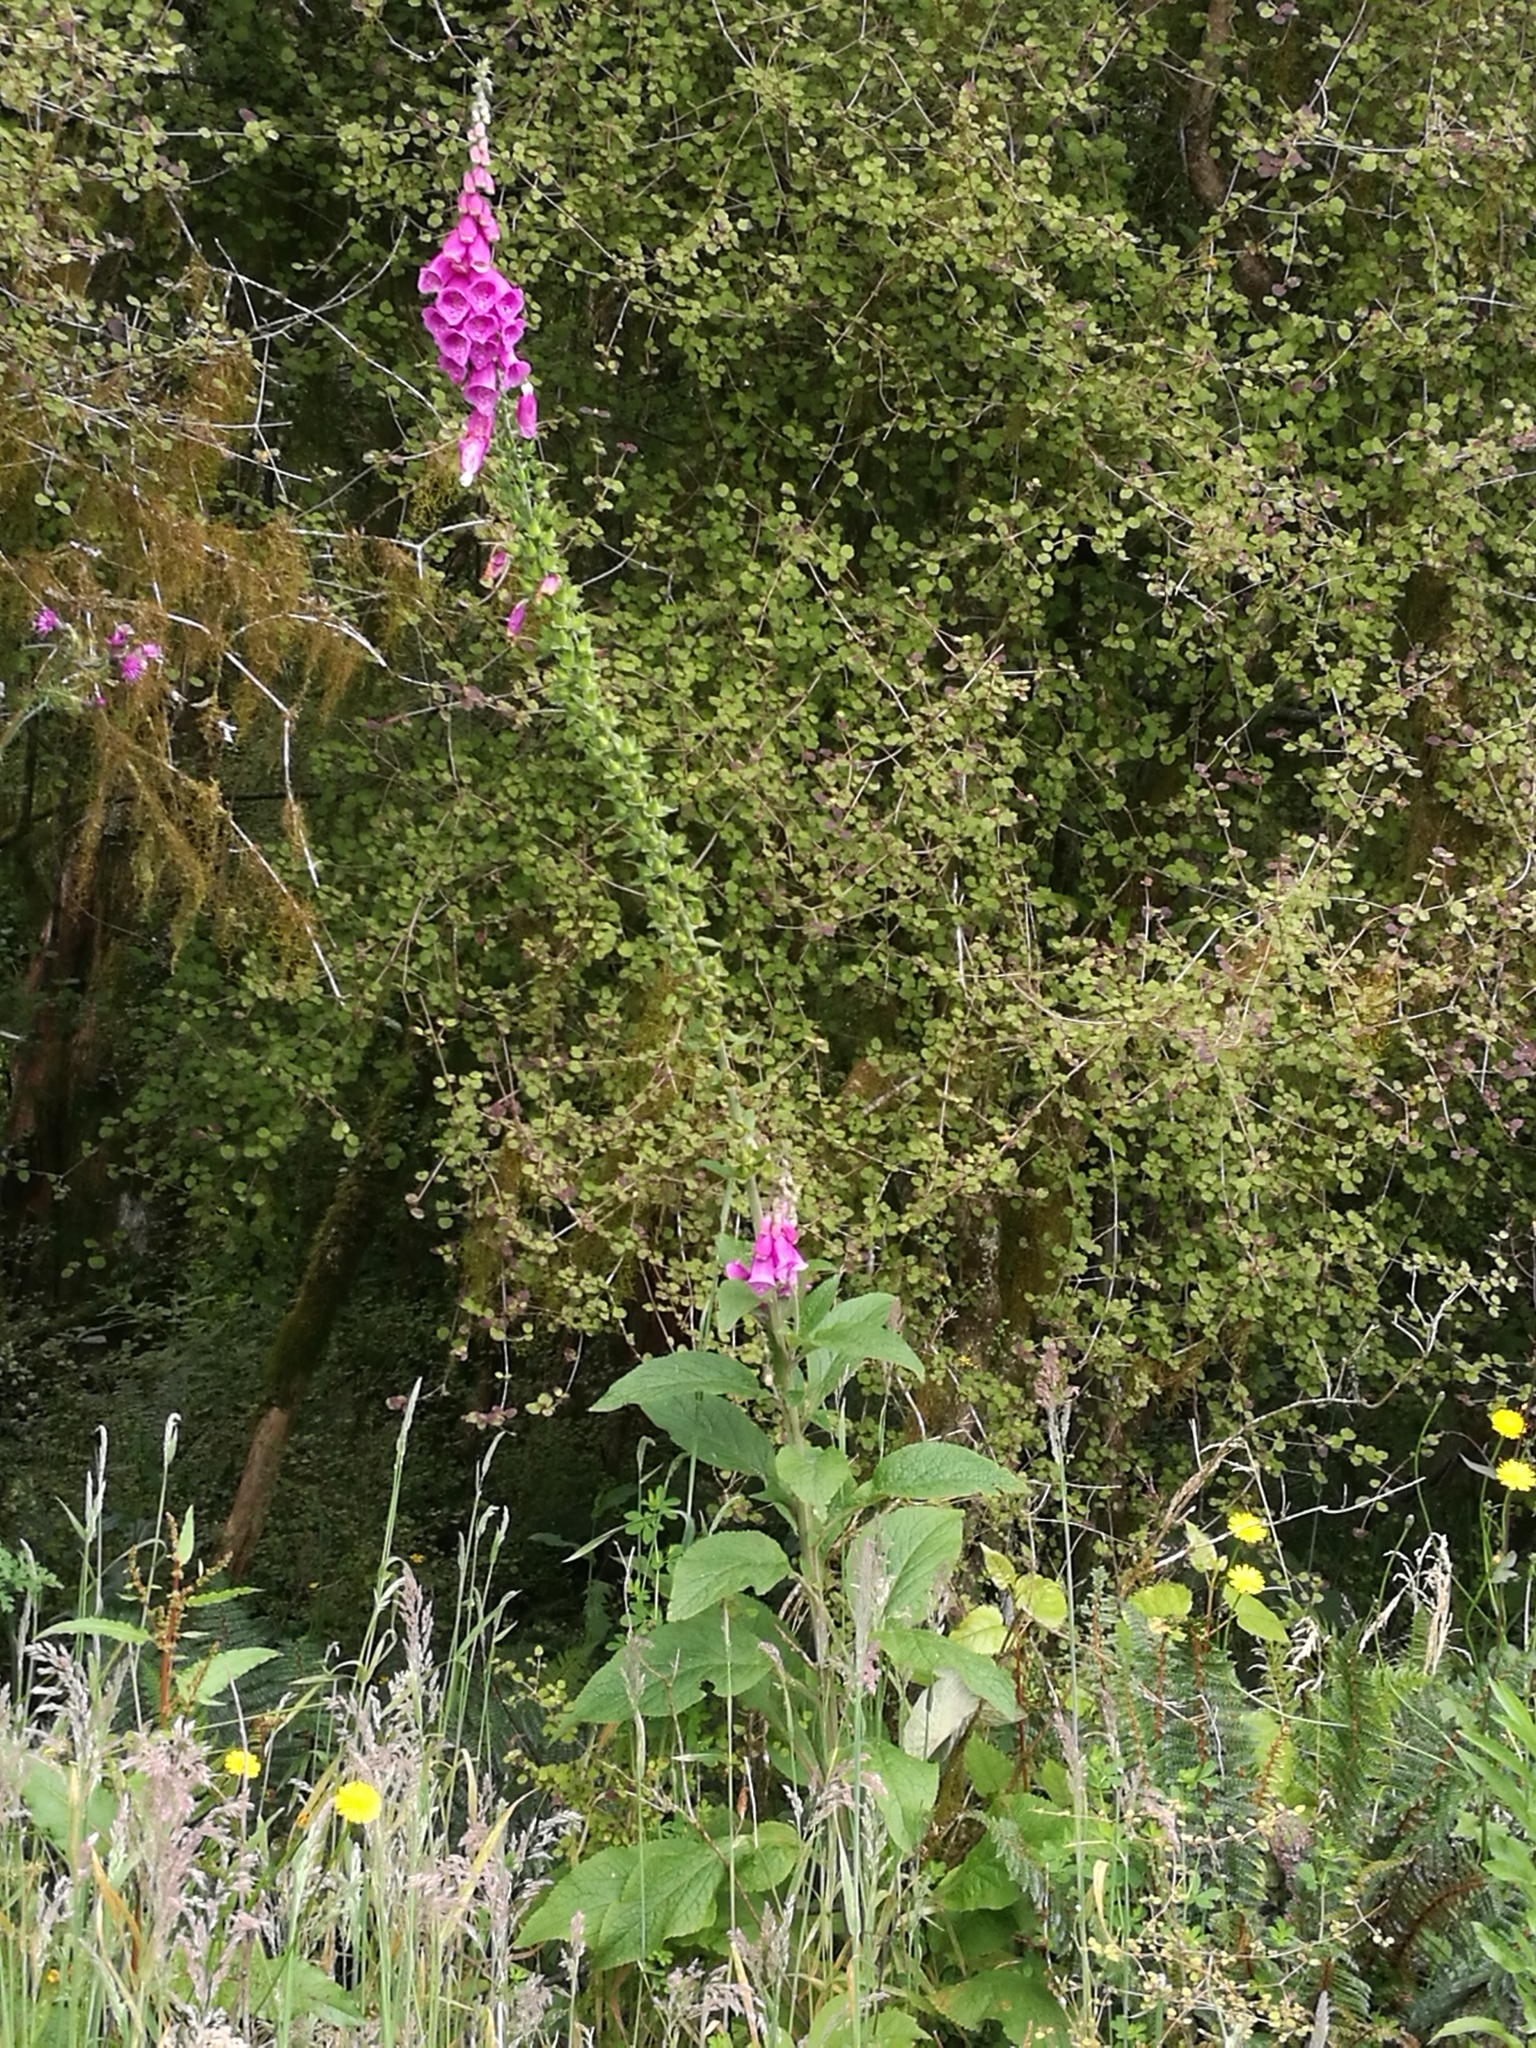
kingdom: Plantae
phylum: Tracheophyta
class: Magnoliopsida
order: Lamiales
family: Plantaginaceae
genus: Digitalis
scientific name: Digitalis purpurea
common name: Foxglove
